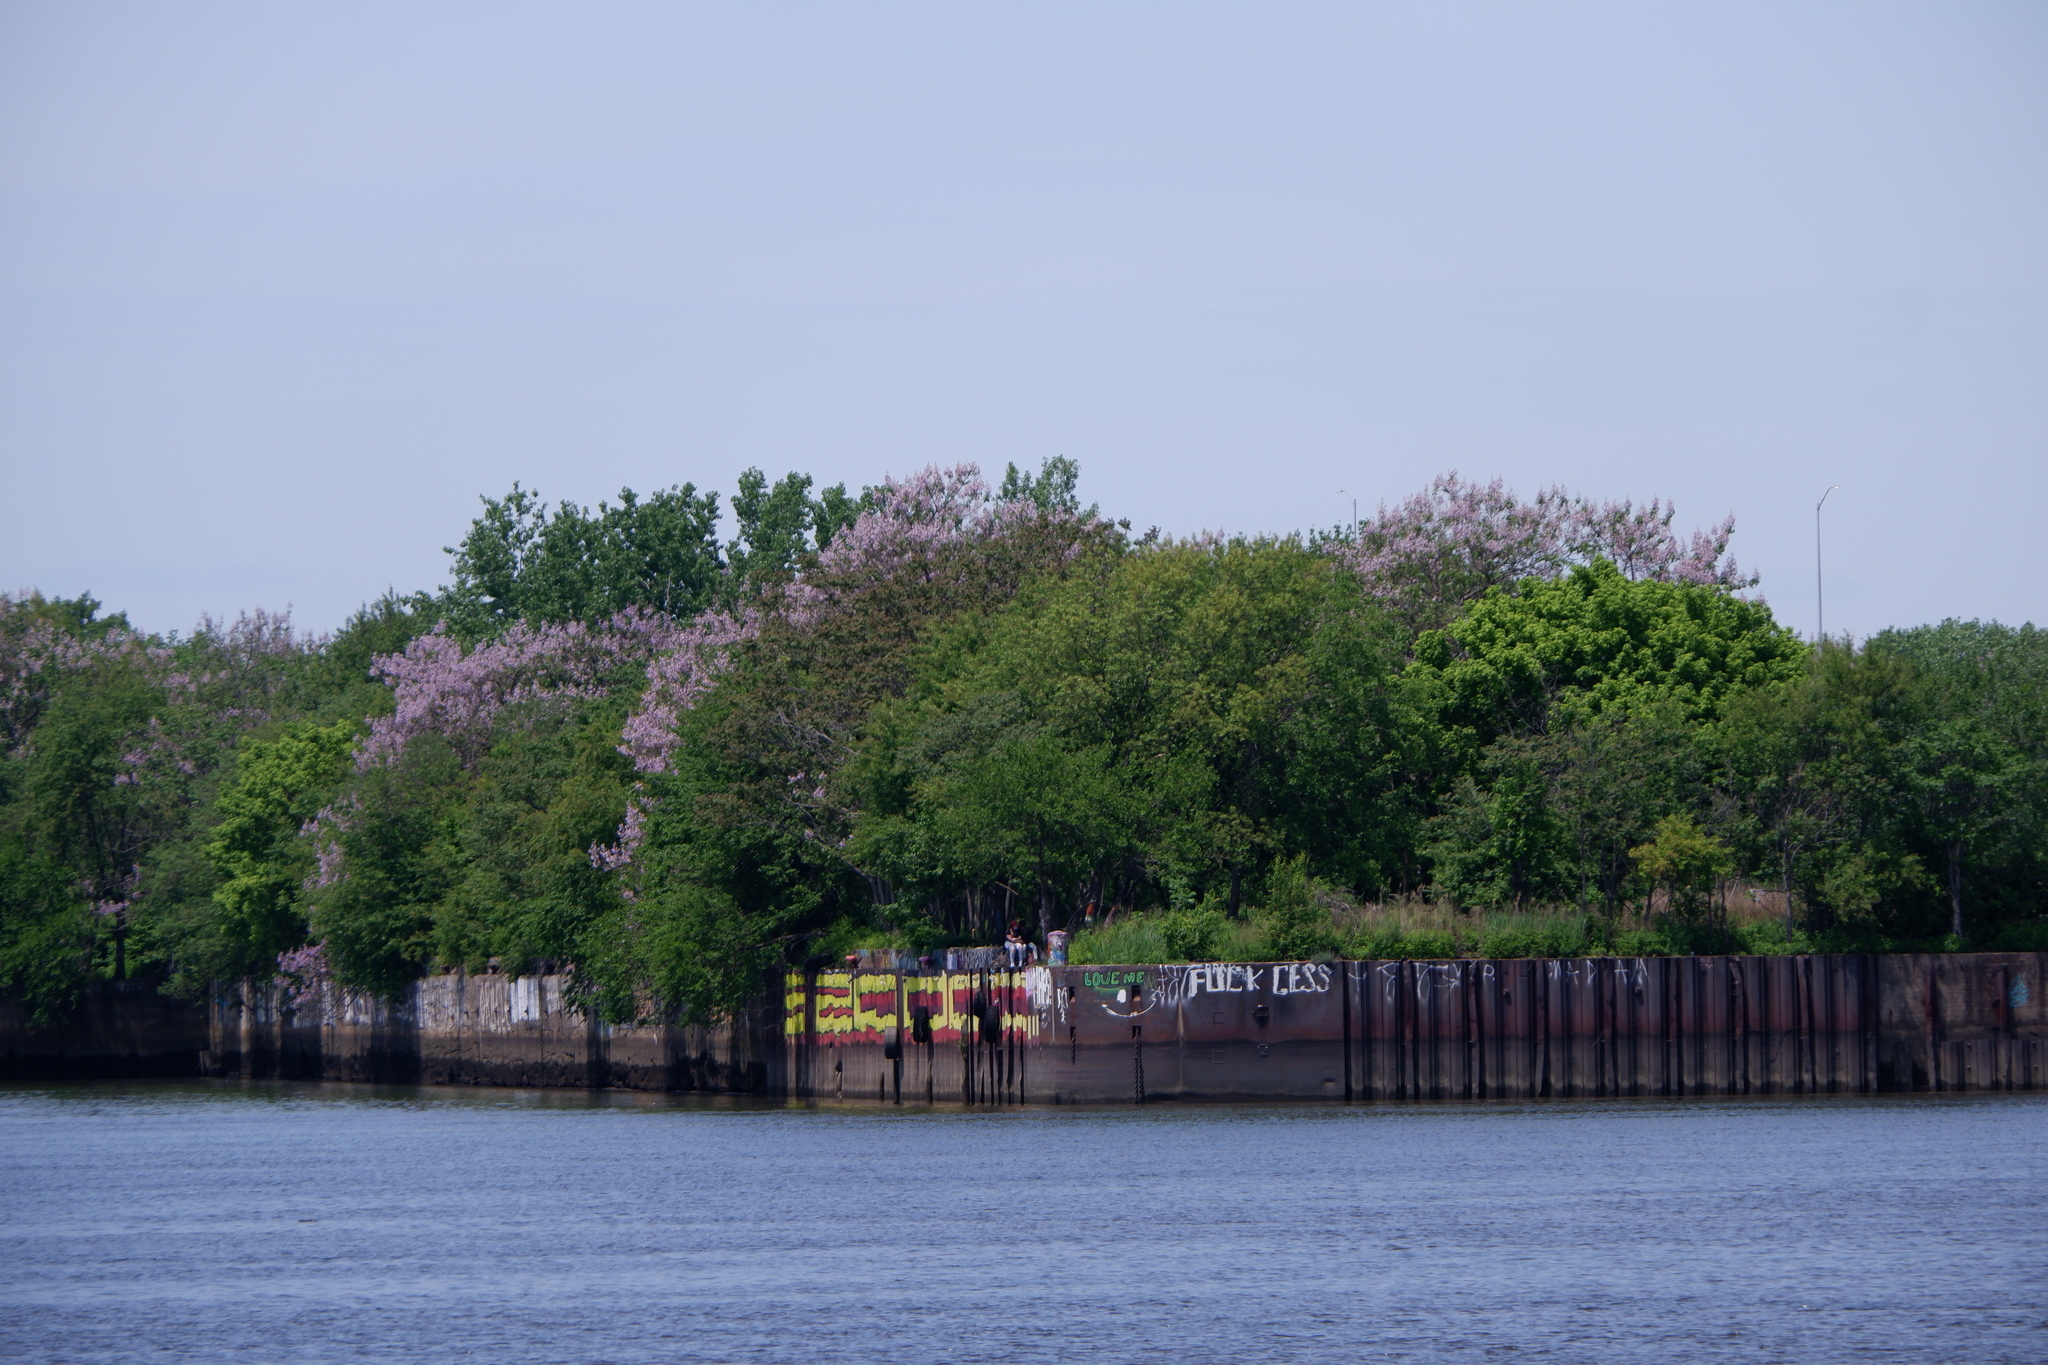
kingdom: Plantae
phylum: Tracheophyta
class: Magnoliopsida
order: Lamiales
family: Paulowniaceae
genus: Paulownia
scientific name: Paulownia tomentosa
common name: Foxglove-tree
